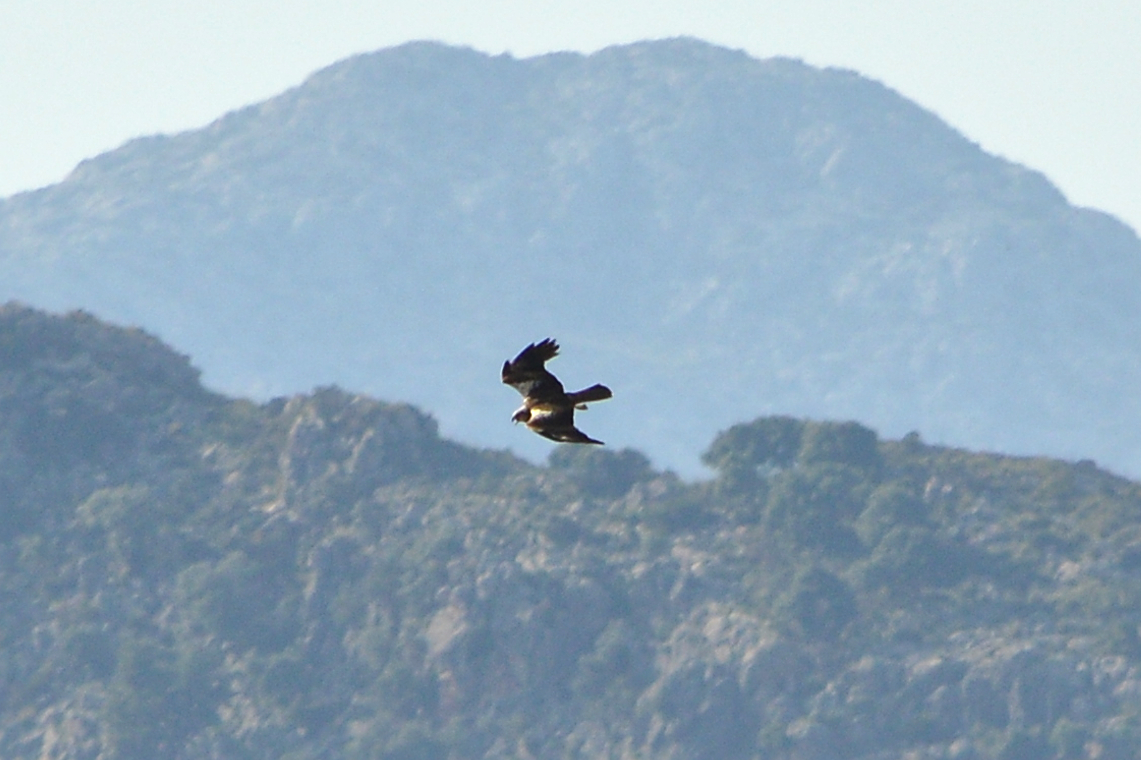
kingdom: Animalia
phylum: Chordata
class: Aves
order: Accipitriformes
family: Accipitridae
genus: Circus
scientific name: Circus aeruginosus
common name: Western marsh harrier
